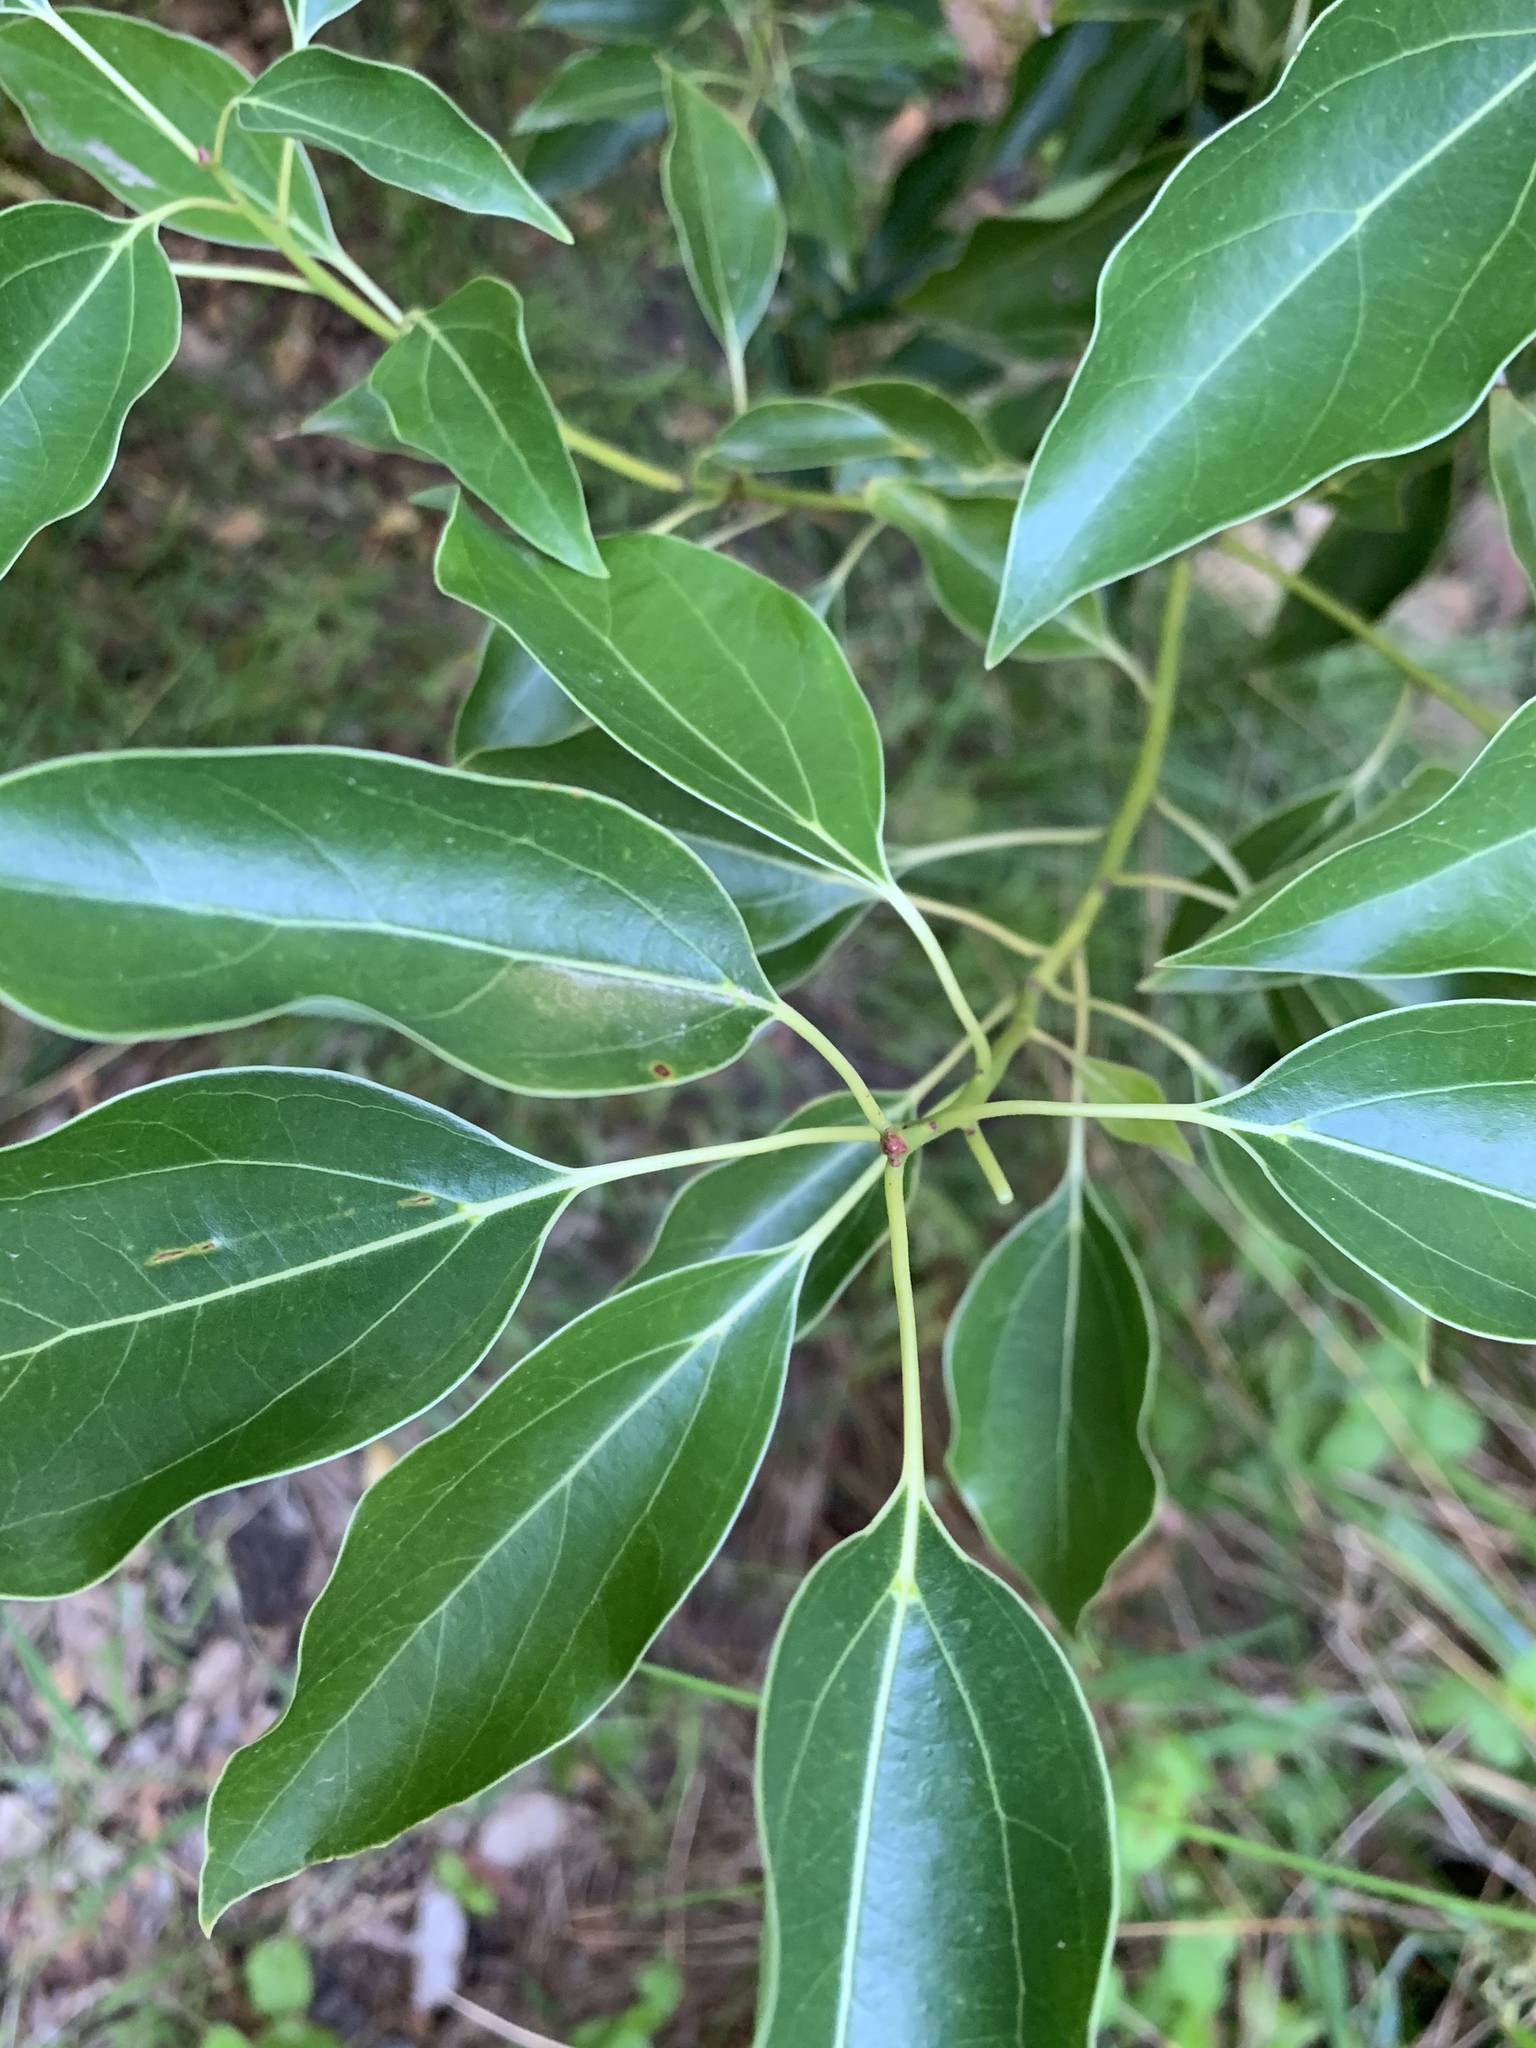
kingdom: Plantae
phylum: Tracheophyta
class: Magnoliopsida
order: Laurales
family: Lauraceae
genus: Cinnamomum
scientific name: Cinnamomum camphora
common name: Camphortree
